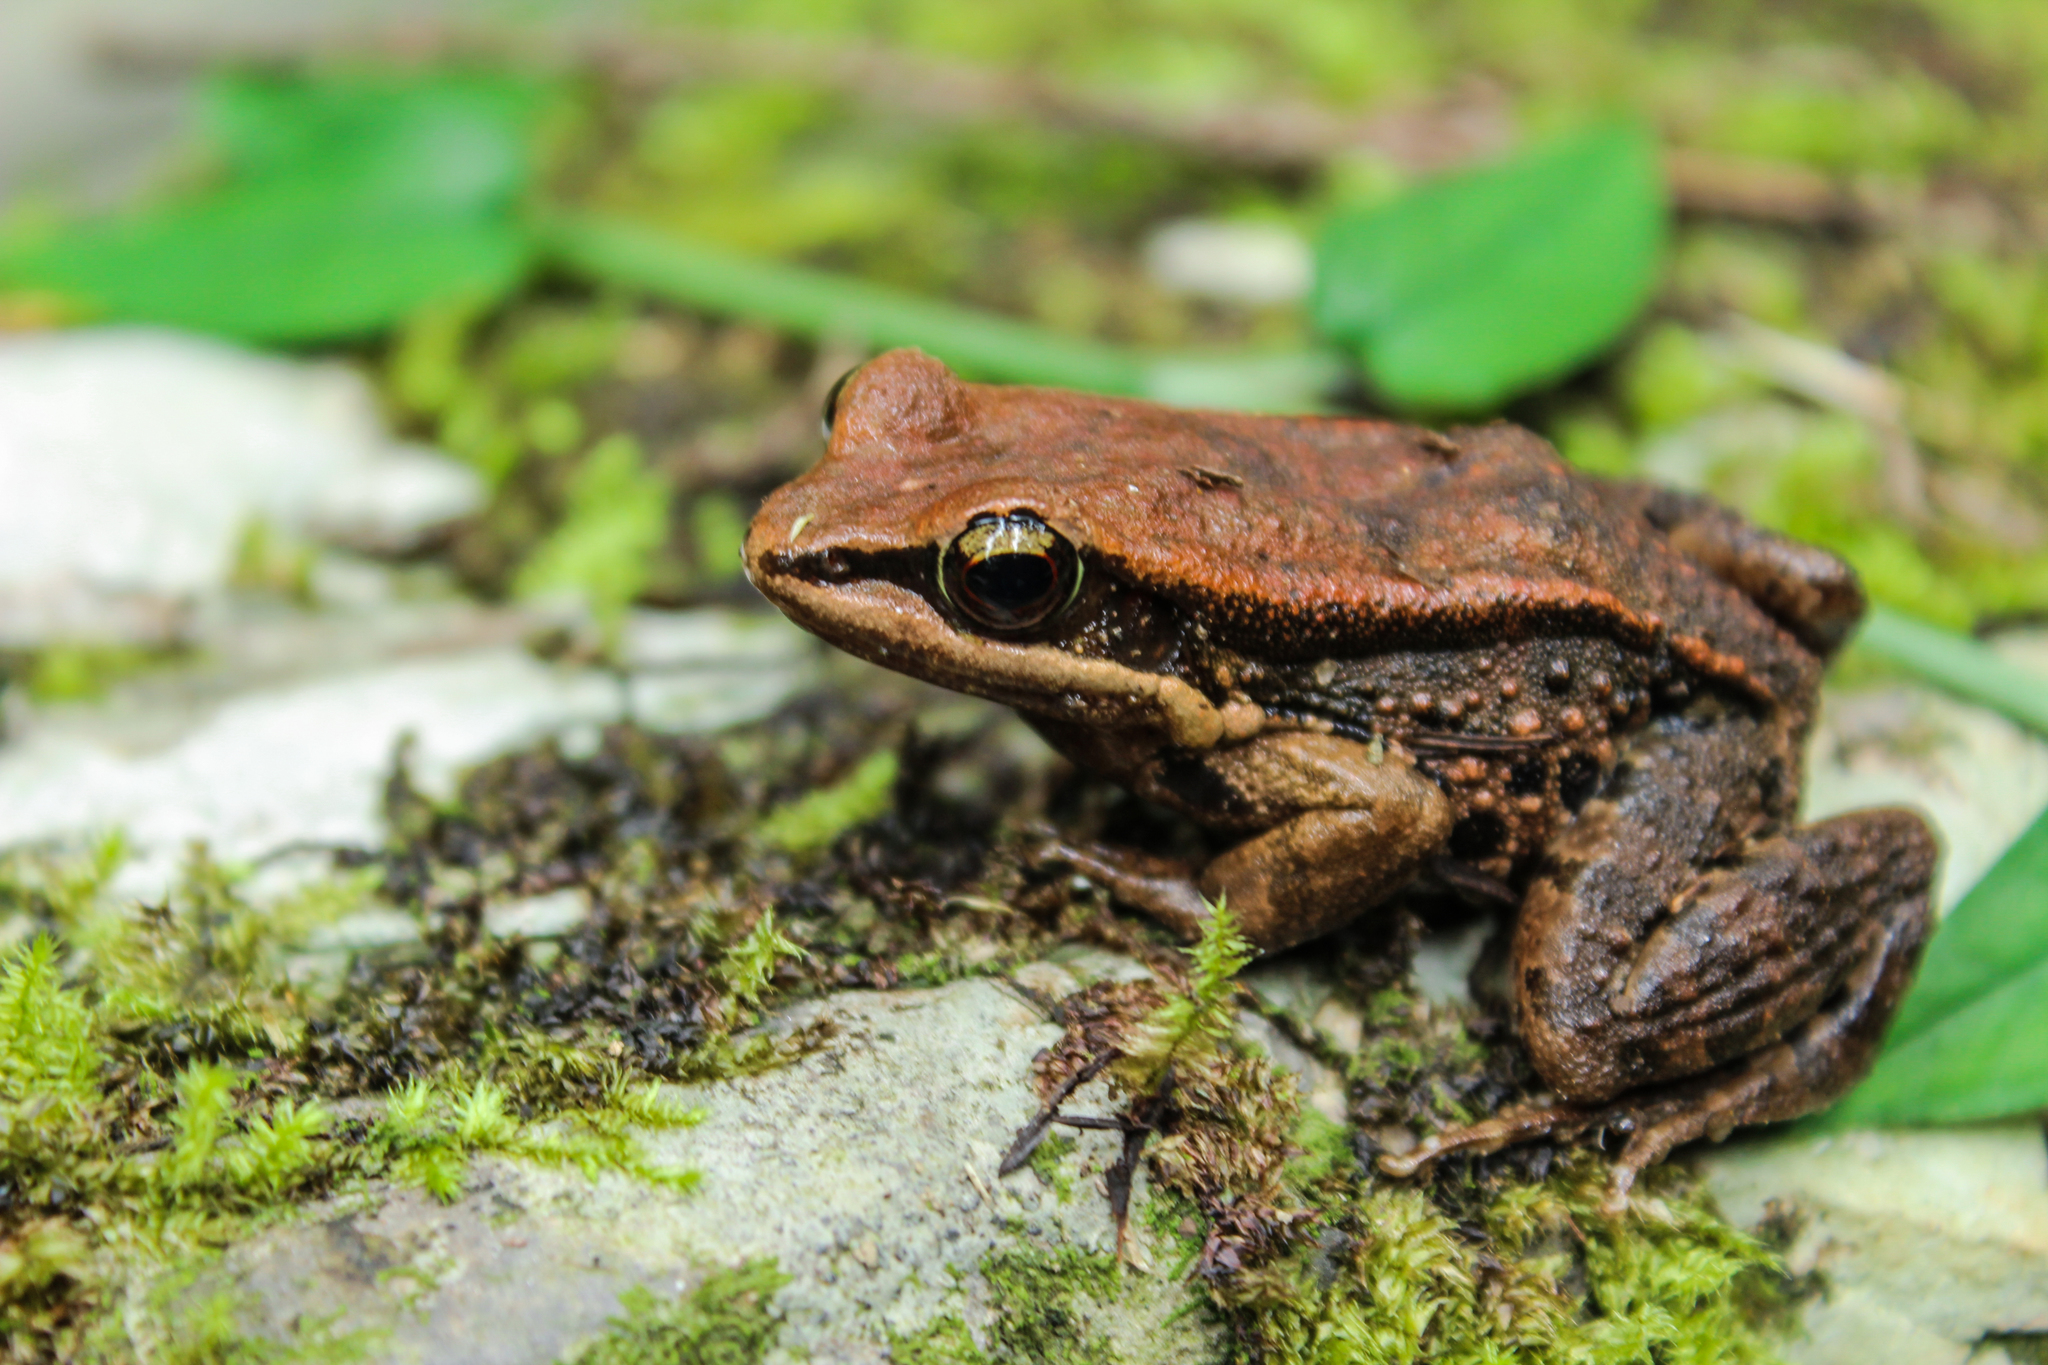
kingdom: Animalia
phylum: Chordata
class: Amphibia
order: Anura
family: Ranidae
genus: Hylarana
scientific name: Hylarana latouchii
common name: Broad-folded frog
